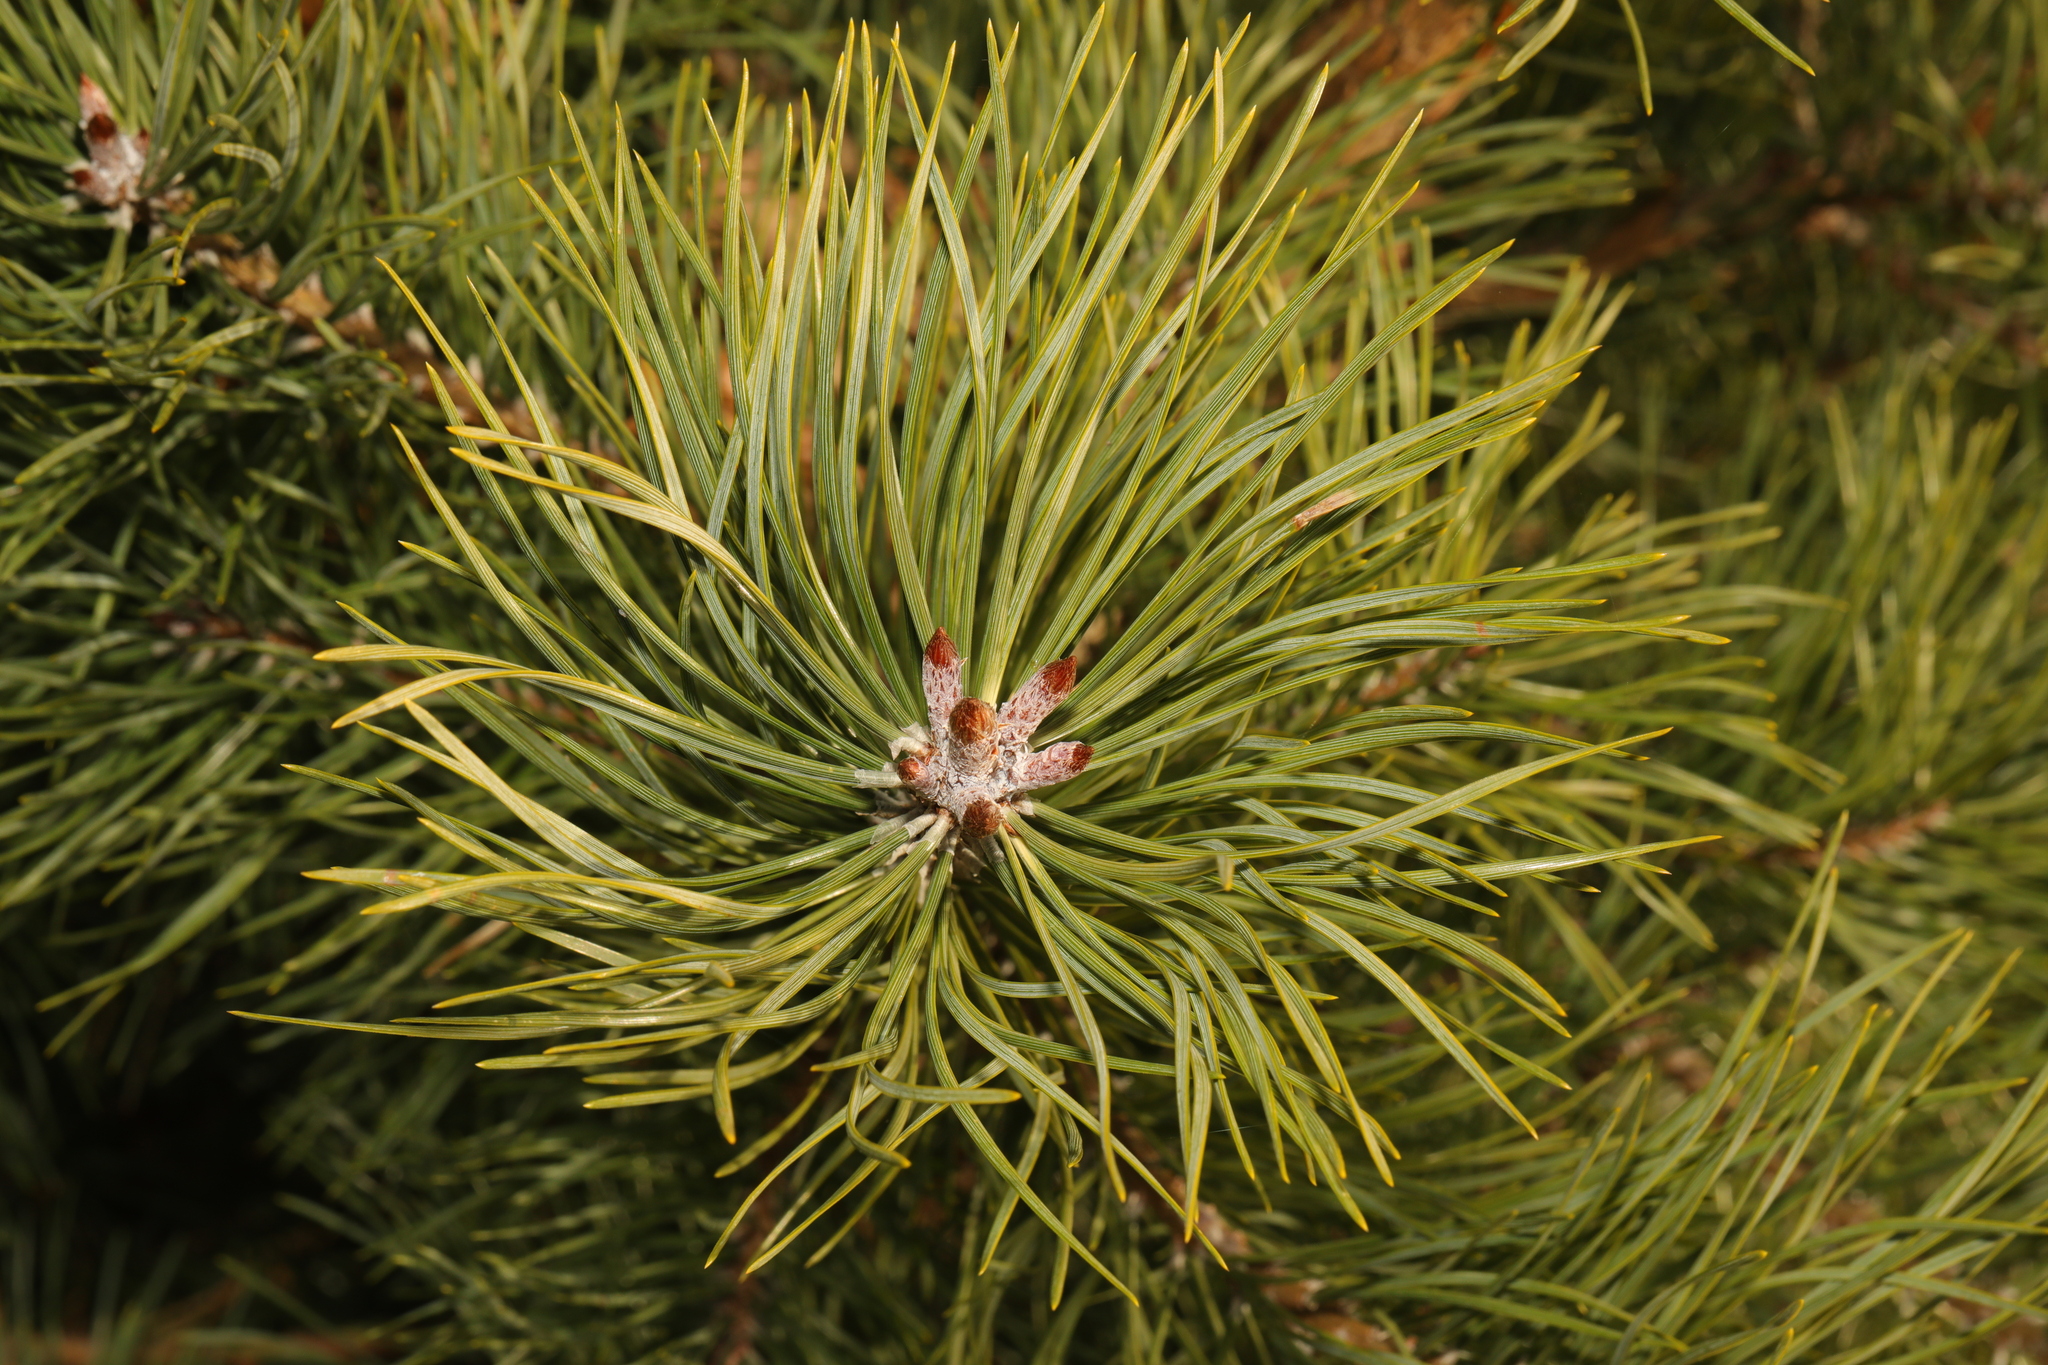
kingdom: Plantae
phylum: Tracheophyta
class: Pinopsida
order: Pinales
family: Pinaceae
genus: Pinus
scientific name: Pinus sylvestris
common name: Scots pine
